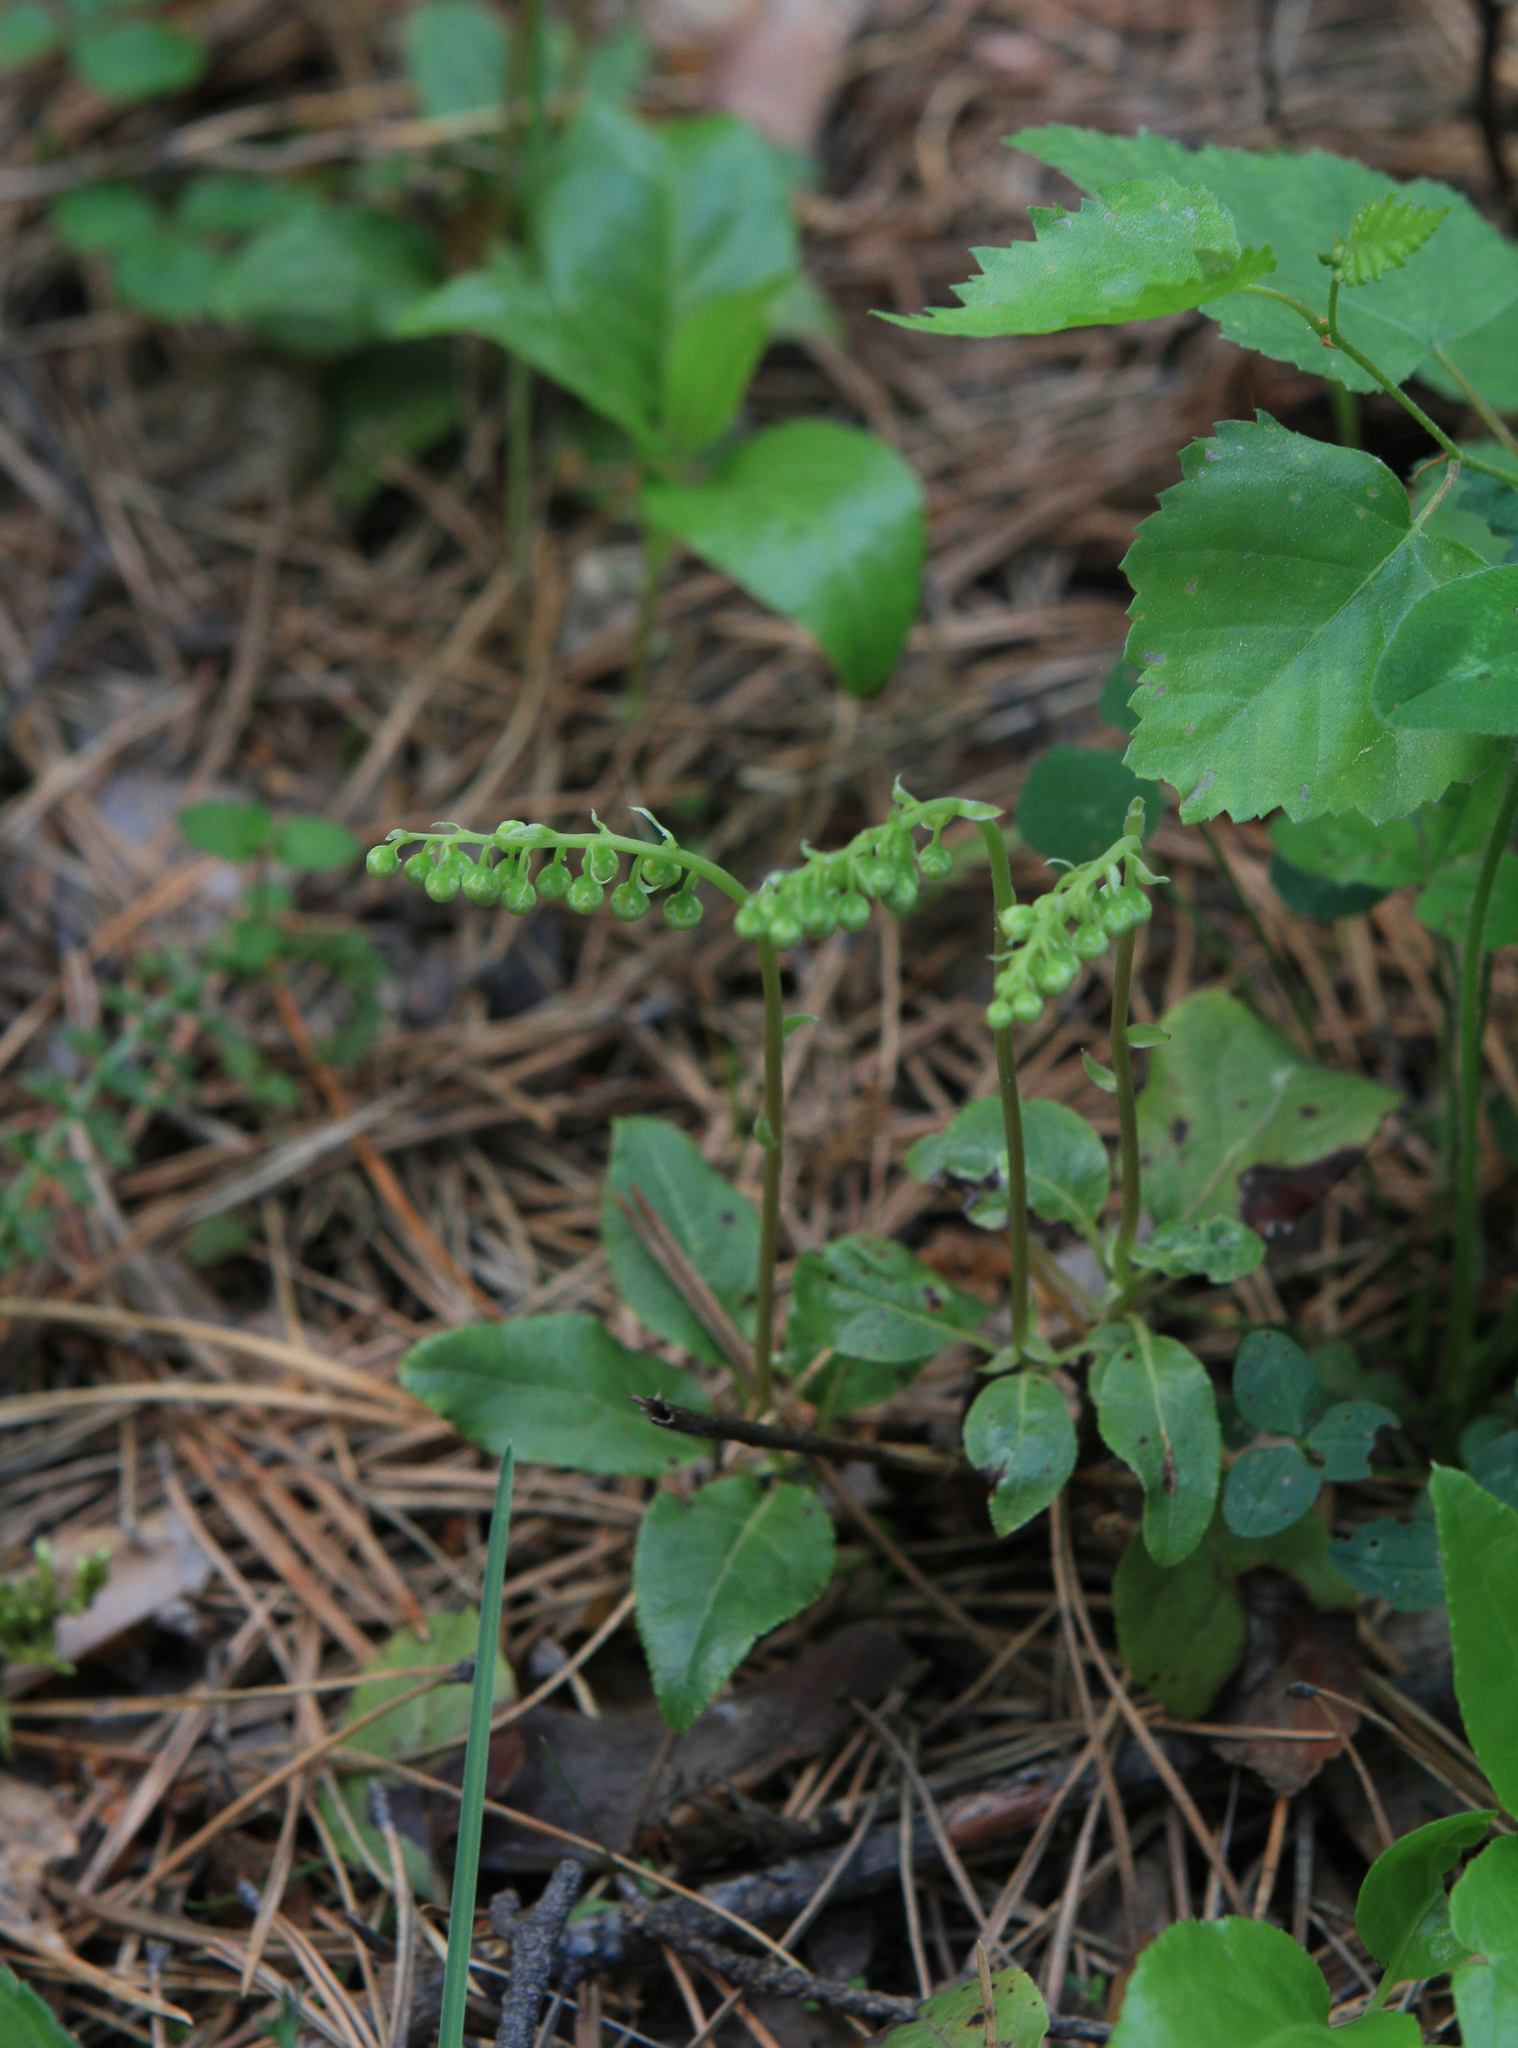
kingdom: Plantae
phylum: Tracheophyta
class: Magnoliopsida
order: Ericales
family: Ericaceae
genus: Orthilia
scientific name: Orthilia secunda
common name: One-sided orthilia
